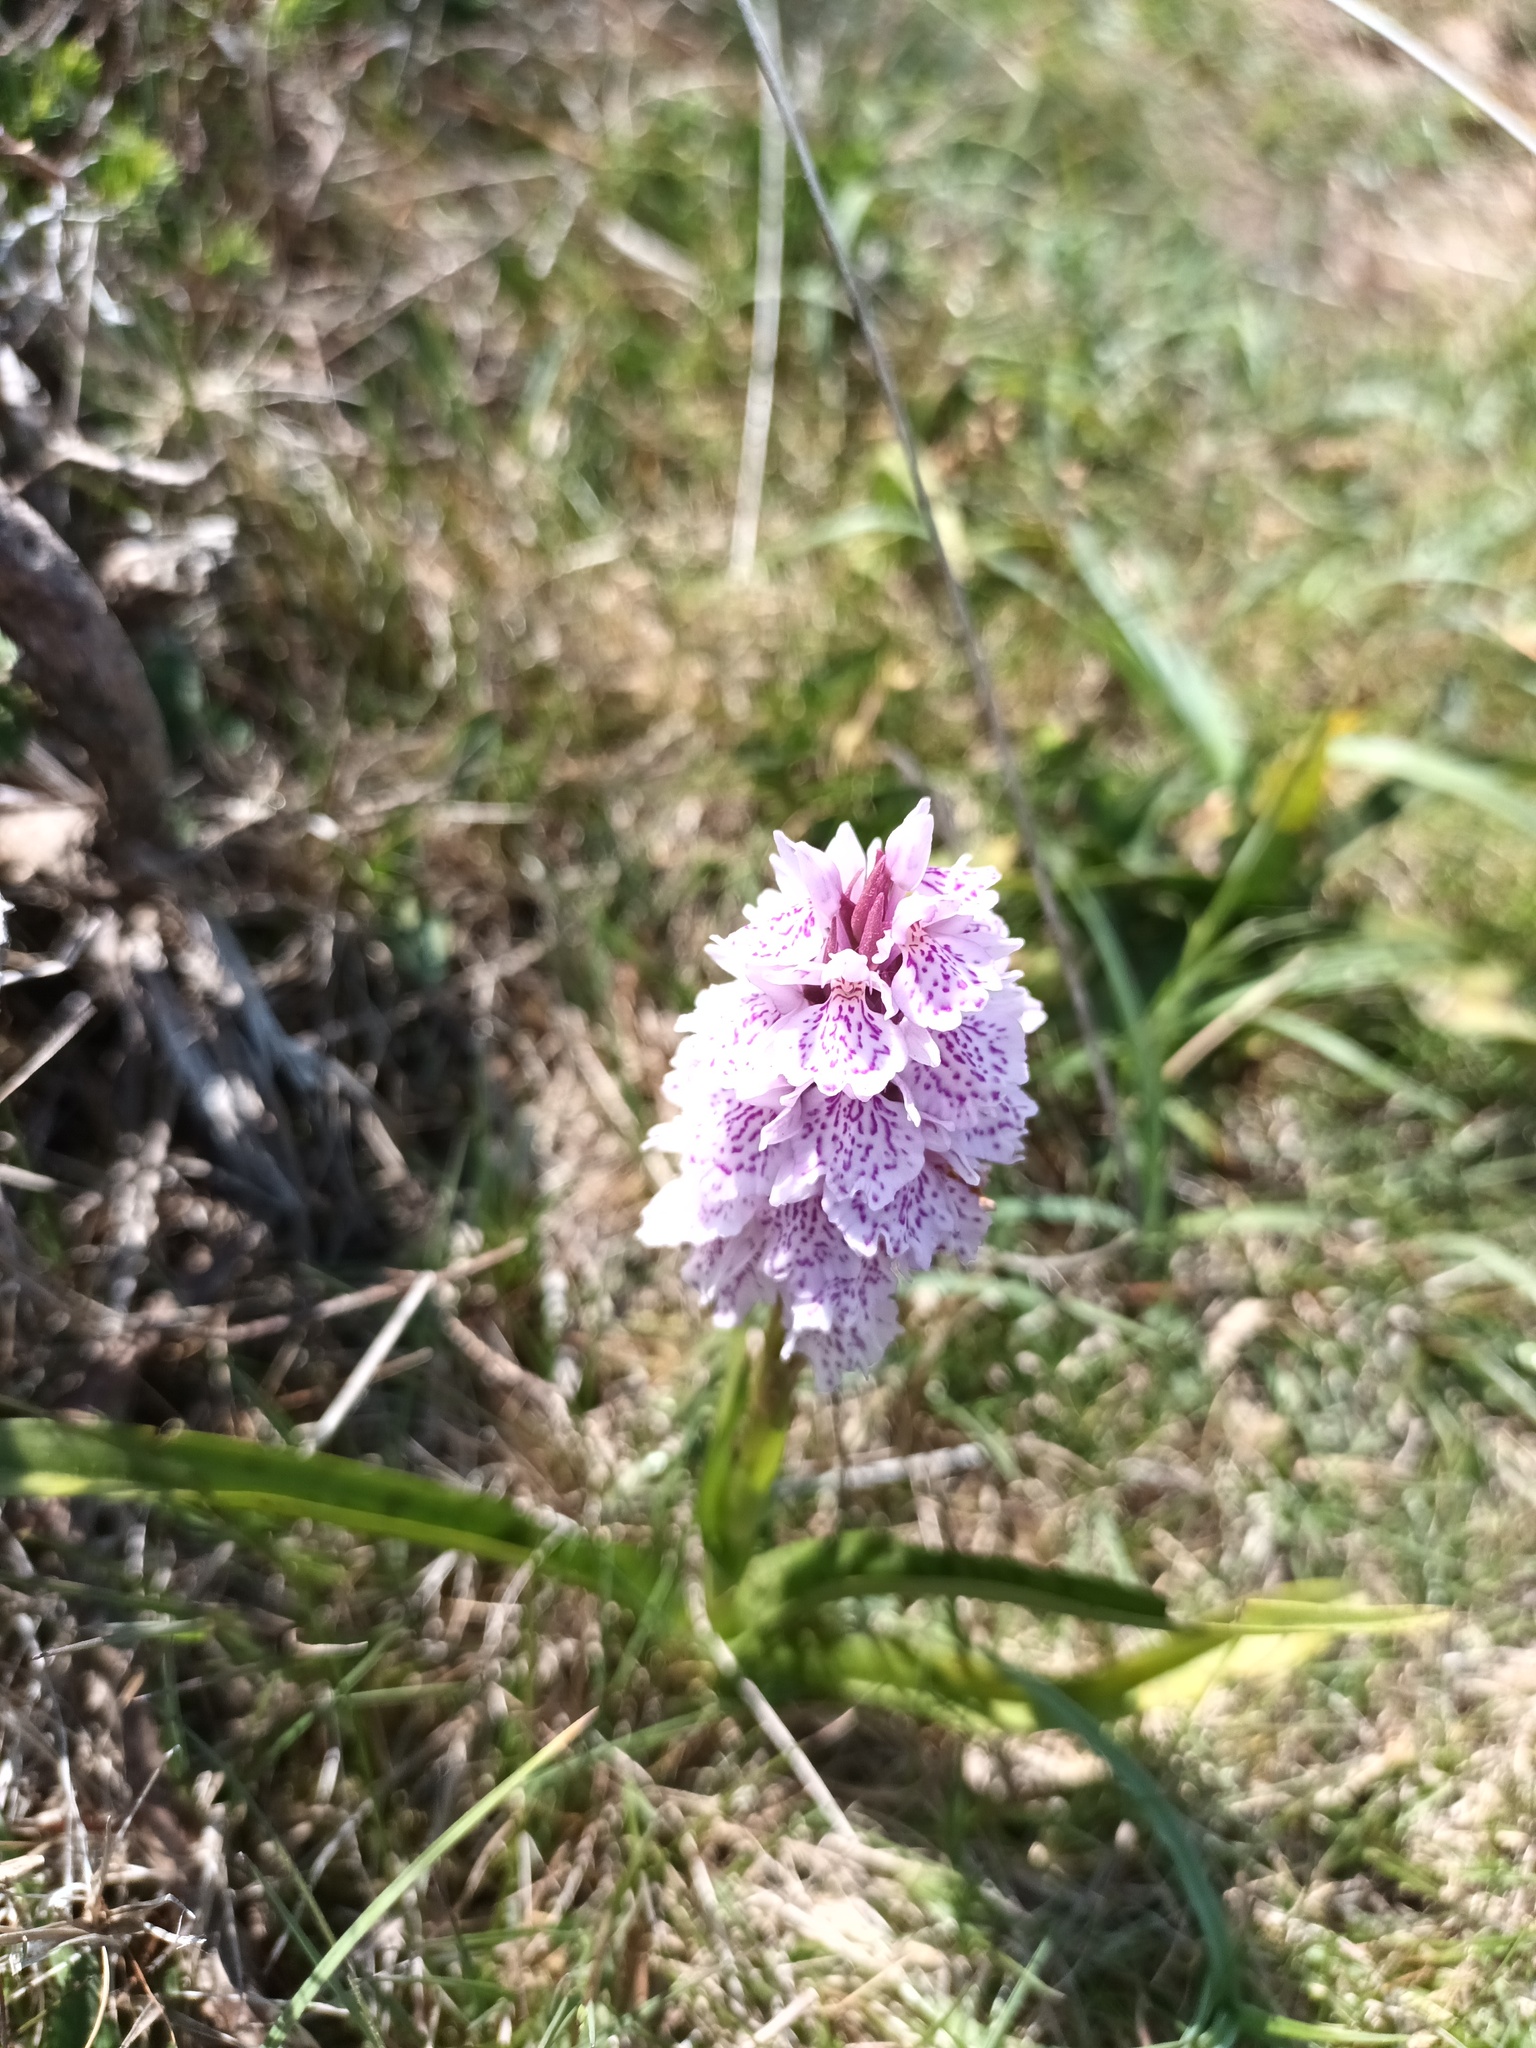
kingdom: Plantae
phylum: Tracheophyta
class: Liliopsida
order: Asparagales
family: Orchidaceae
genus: Dactylorhiza
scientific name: Dactylorhiza maculata
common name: Heath spotted-orchid
